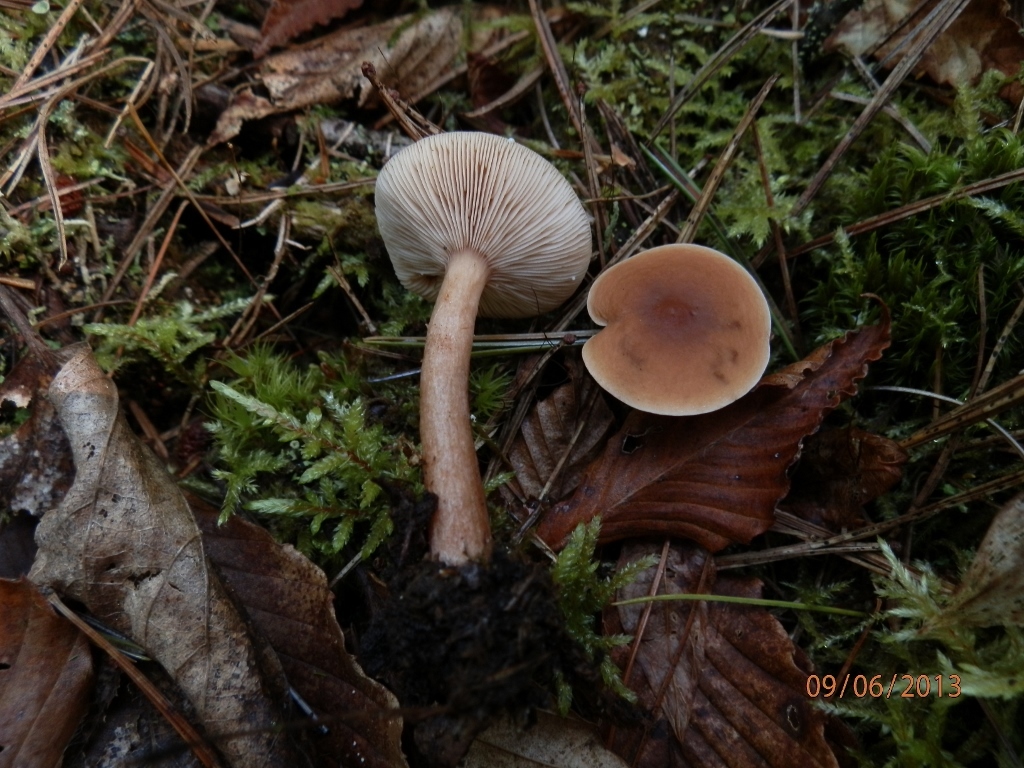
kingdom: Fungi
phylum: Basidiomycota
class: Agaricomycetes
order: Russulales
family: Russulaceae
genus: Lactarius
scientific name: Lactarius subdulcis
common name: Mild milkcap
